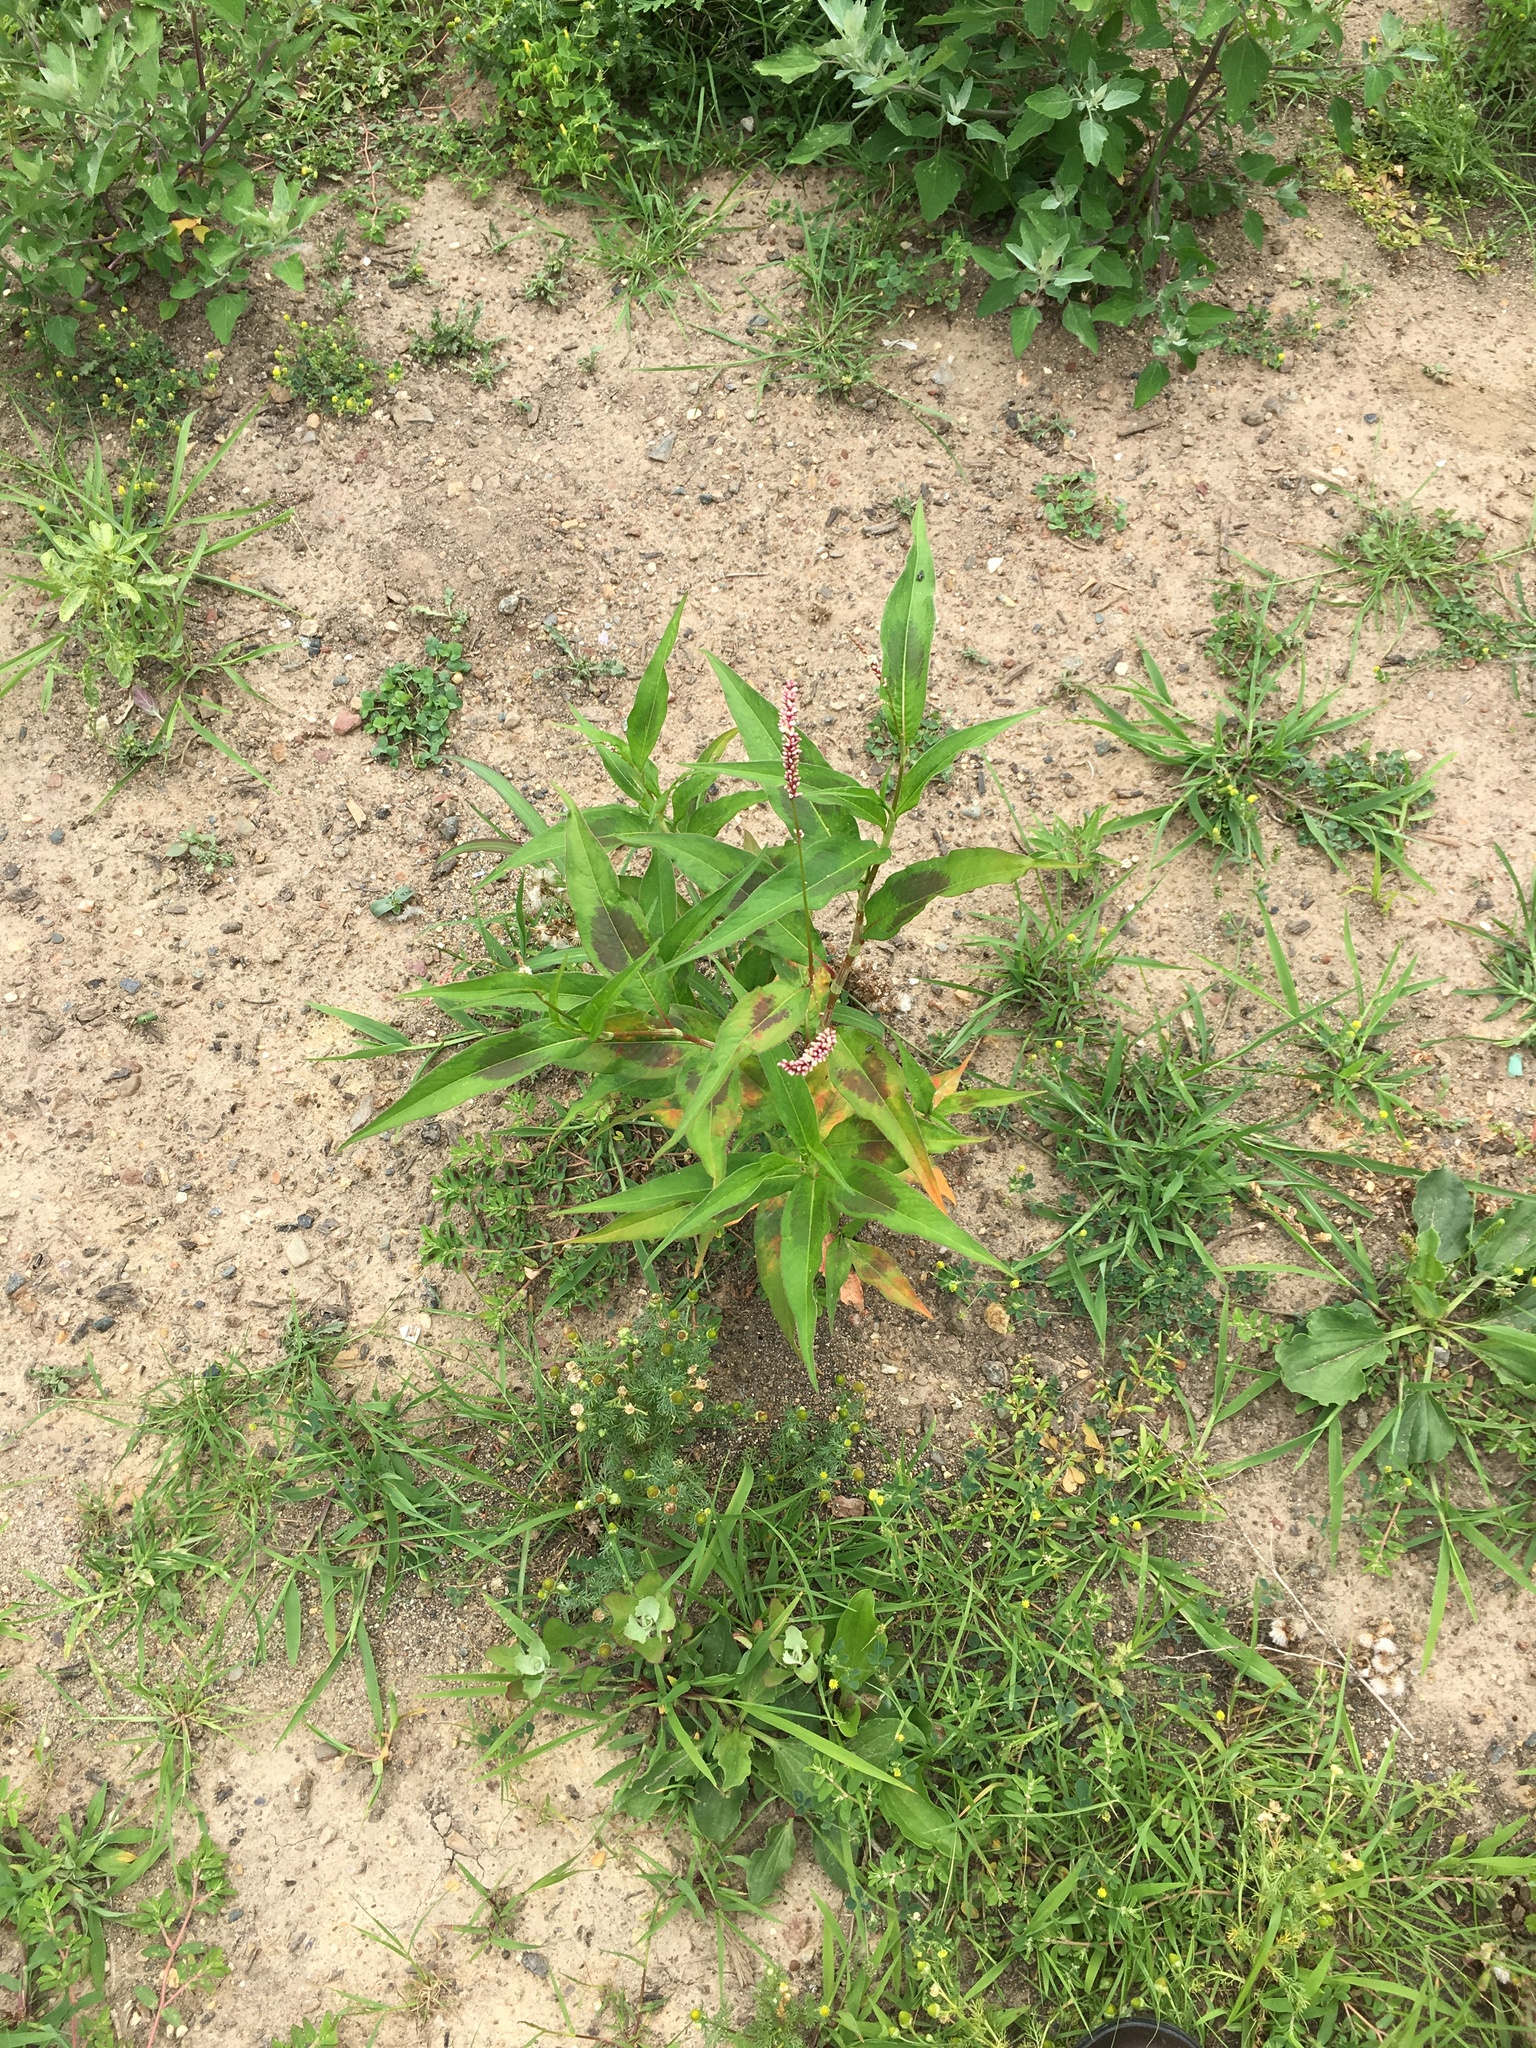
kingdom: Plantae
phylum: Tracheophyta
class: Magnoliopsida
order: Caryophyllales
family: Polygonaceae
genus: Persicaria
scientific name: Persicaria extremiorientalis
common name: Far-eastern smartweed
